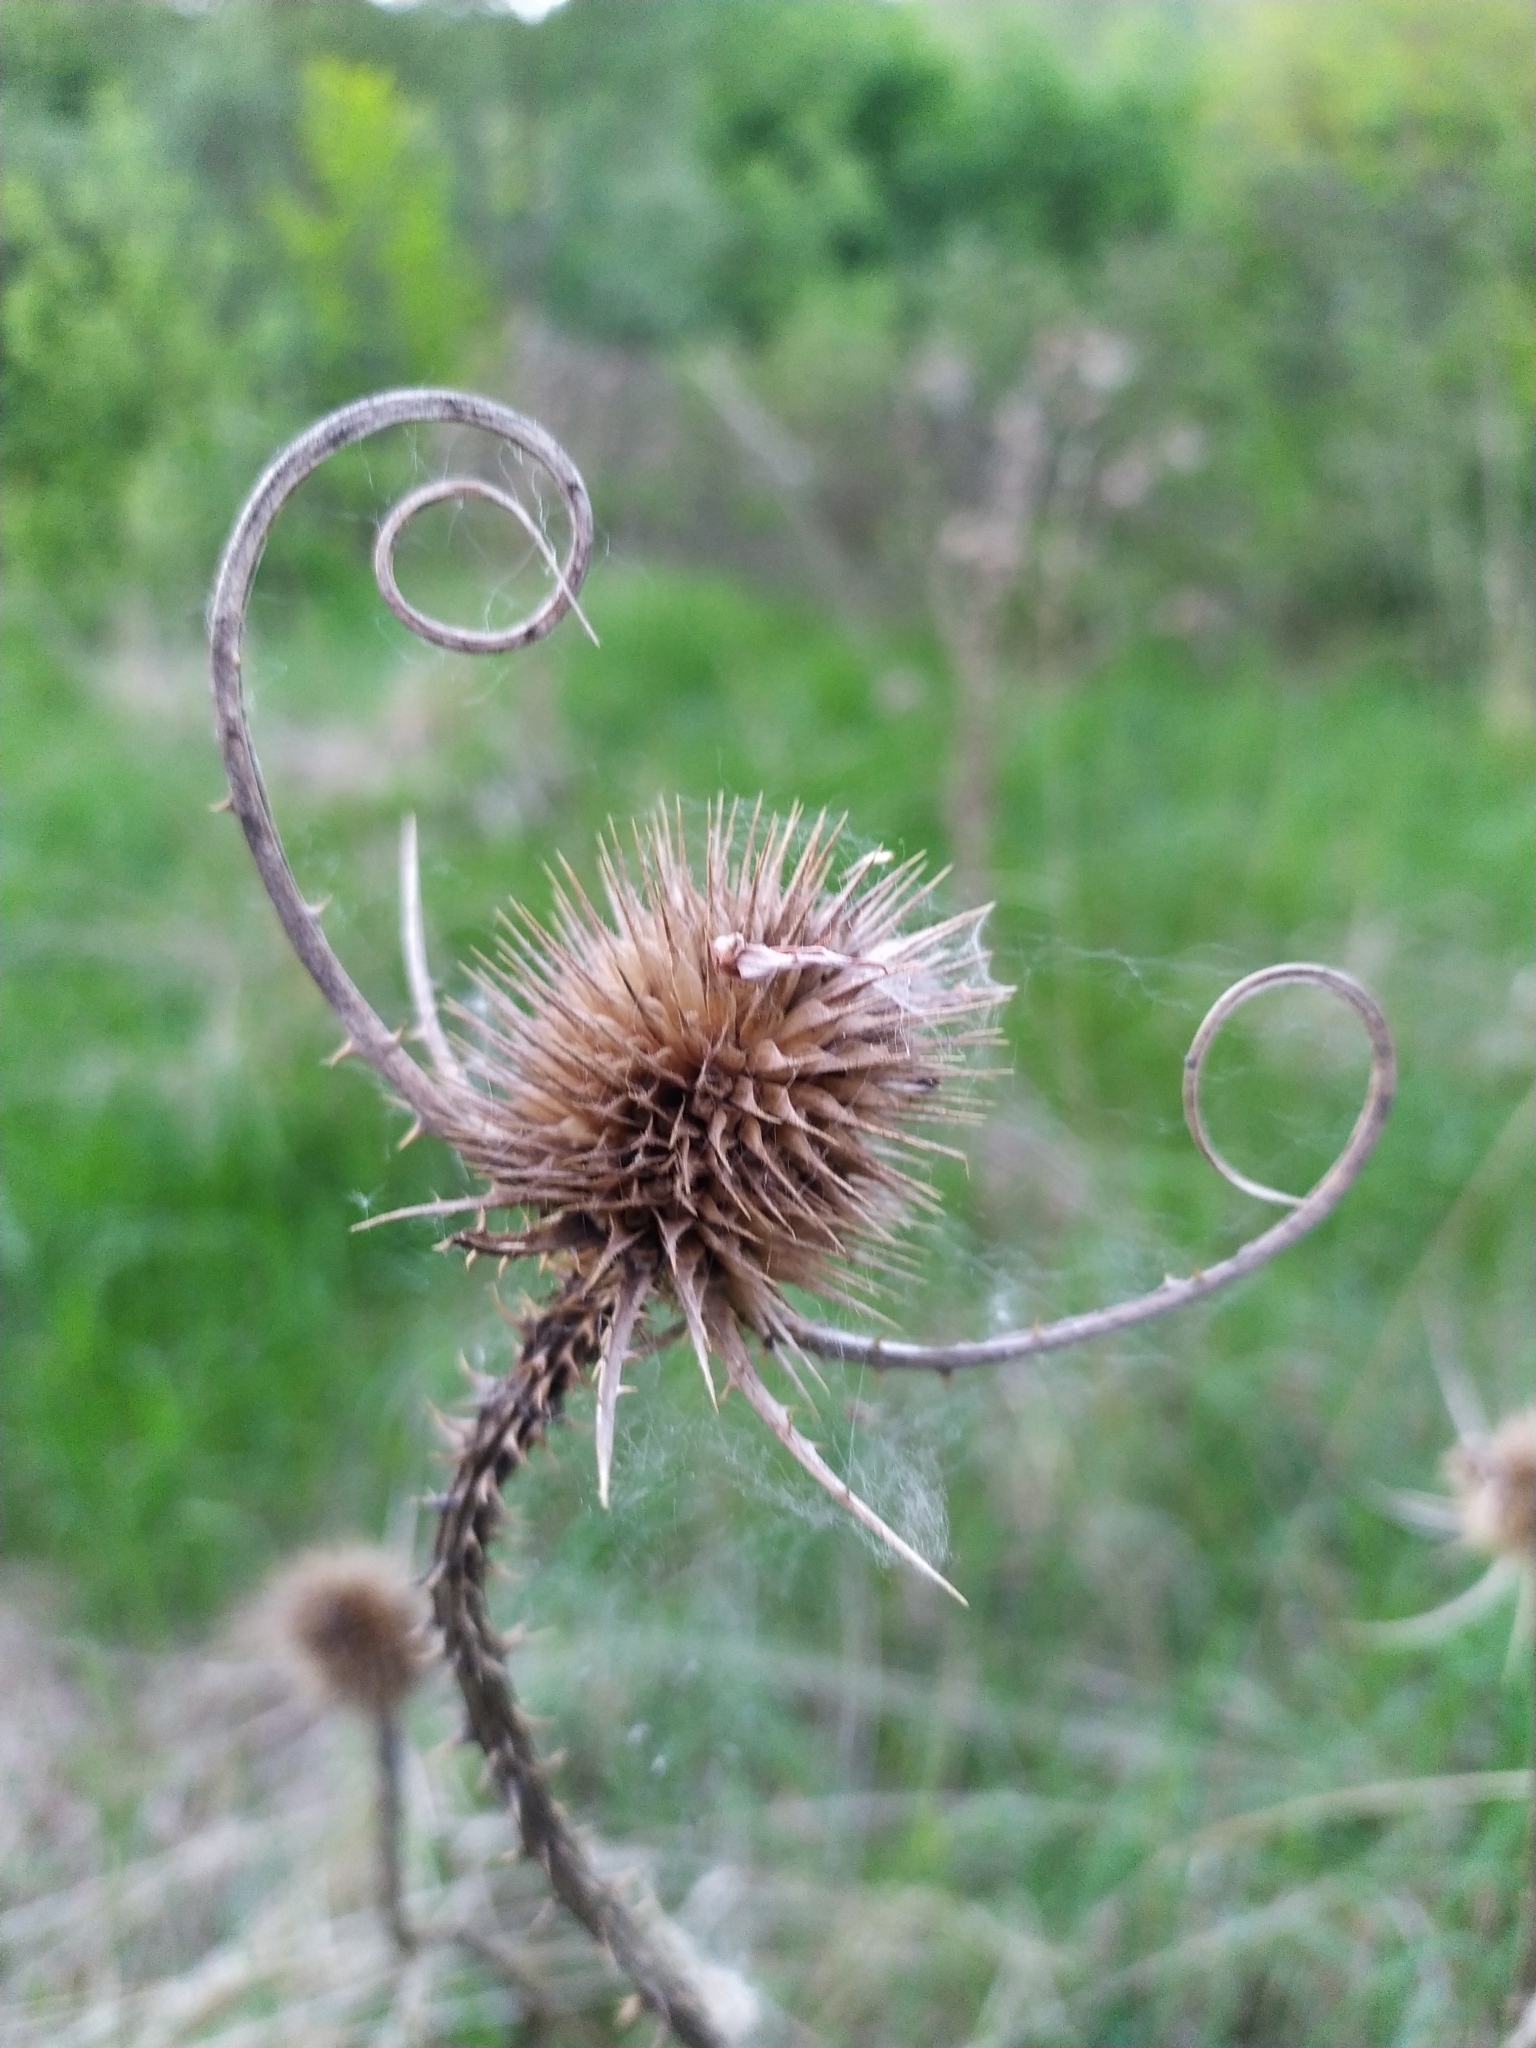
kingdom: Plantae
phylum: Tracheophyta
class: Magnoliopsida
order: Dipsacales
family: Caprifoliaceae
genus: Dipsacus
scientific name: Dipsacus fullonum
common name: Teasel
